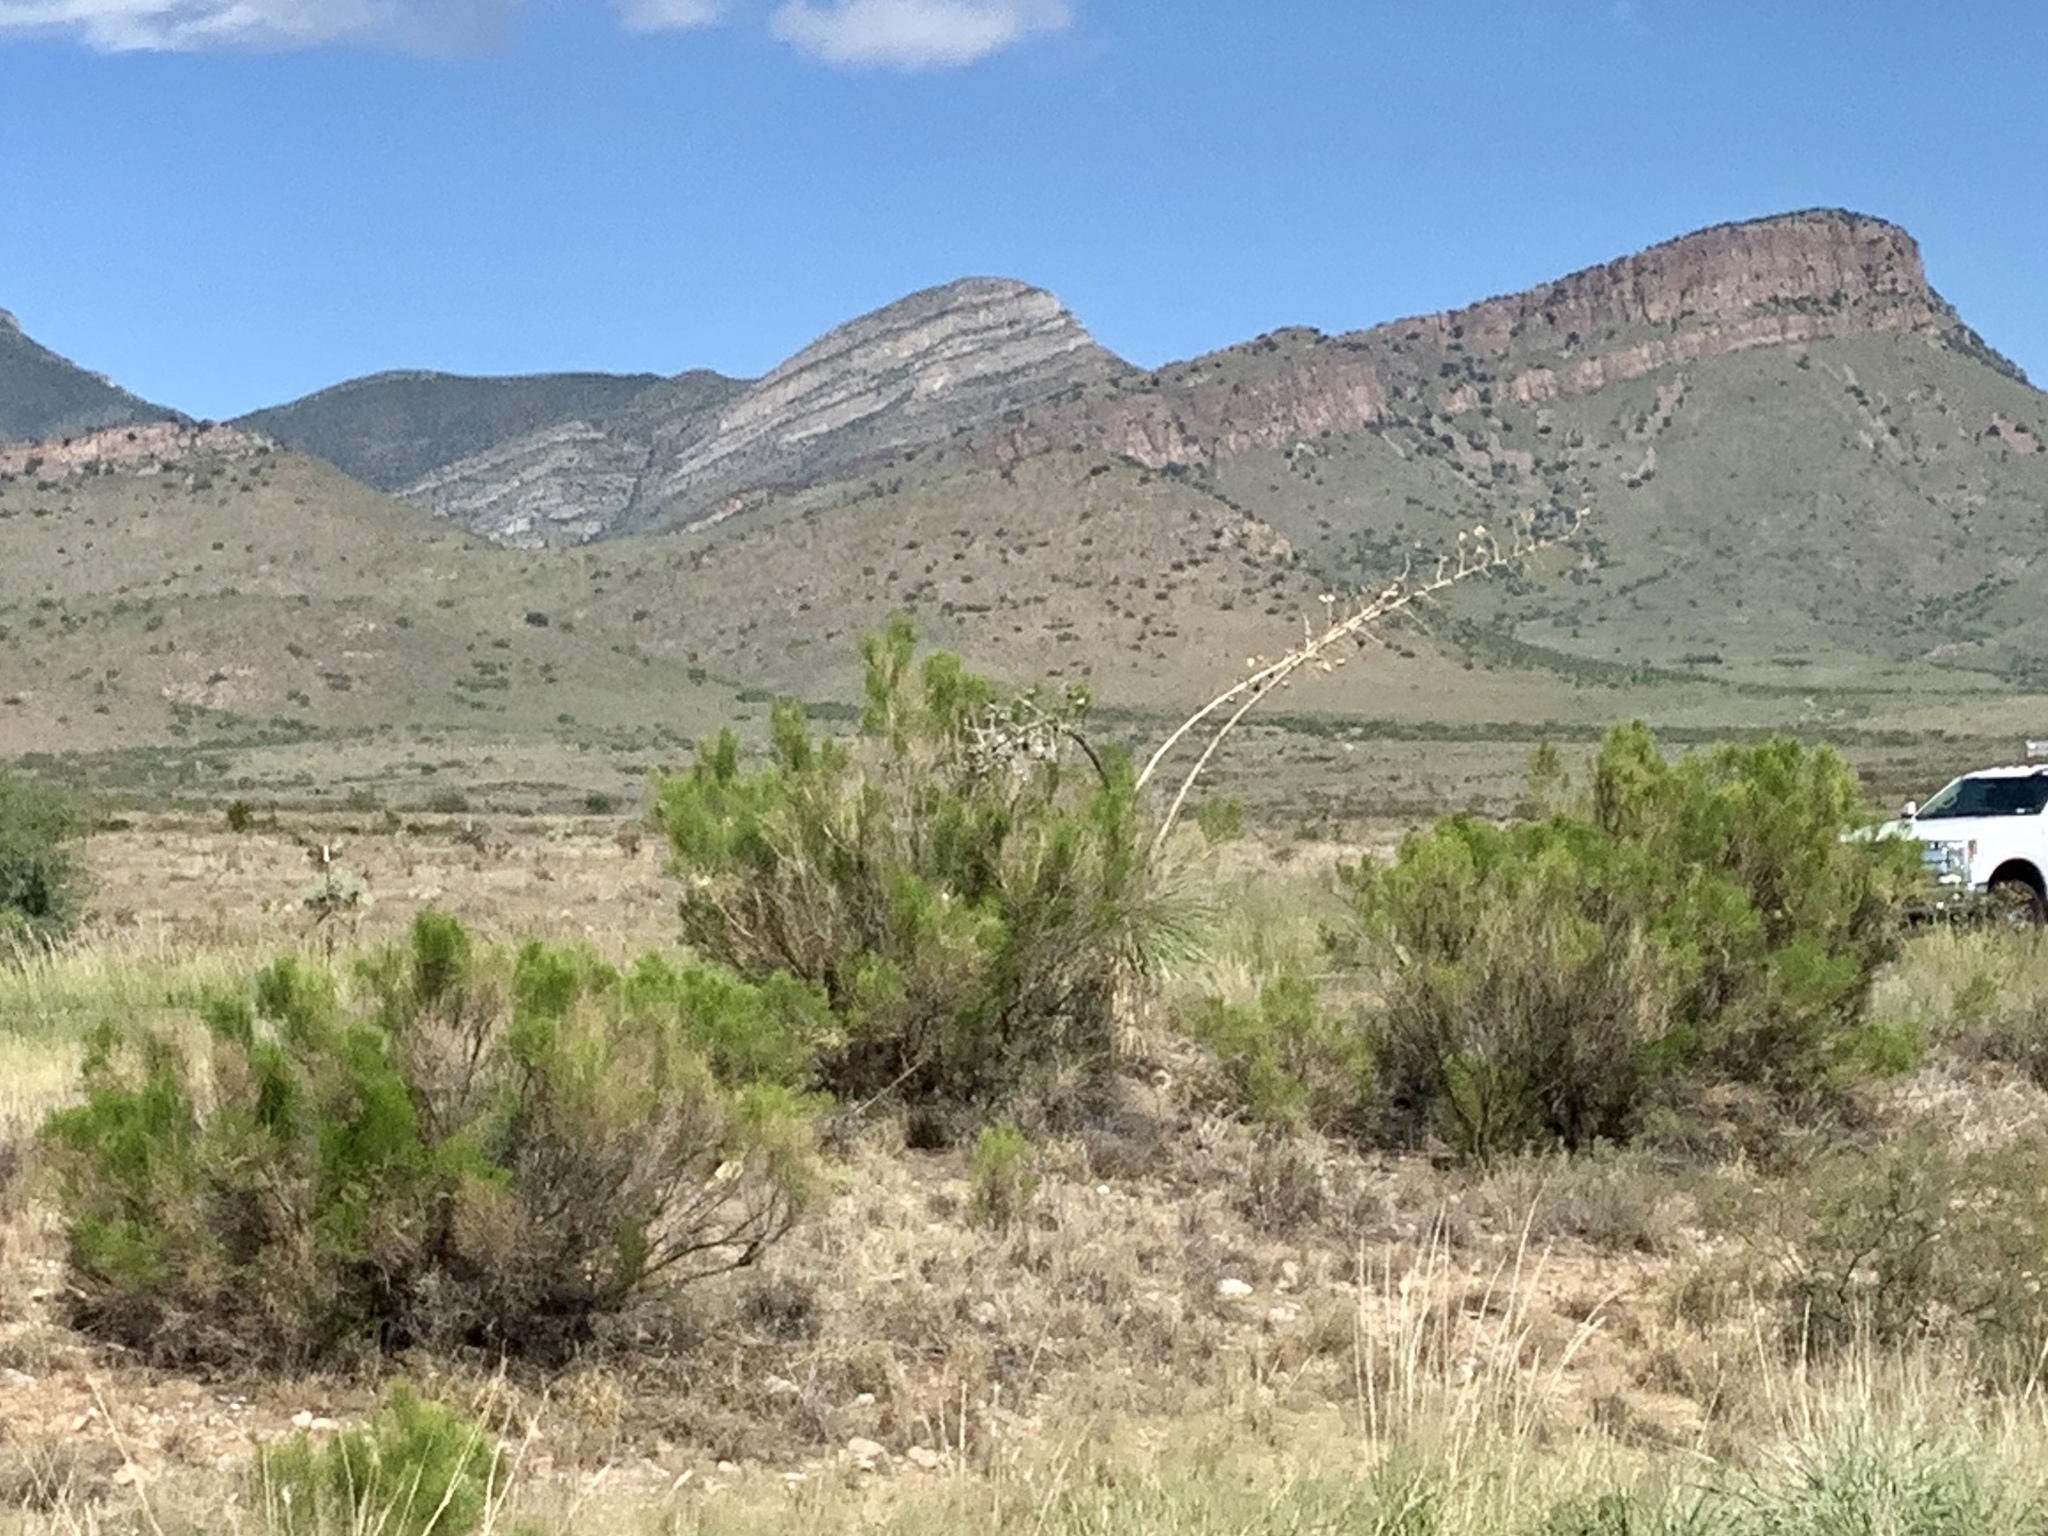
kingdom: Plantae
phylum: Tracheophyta
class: Magnoliopsida
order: Asterales
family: Asteraceae
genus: Baccharis
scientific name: Baccharis sarothroides
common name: Desert-broom
